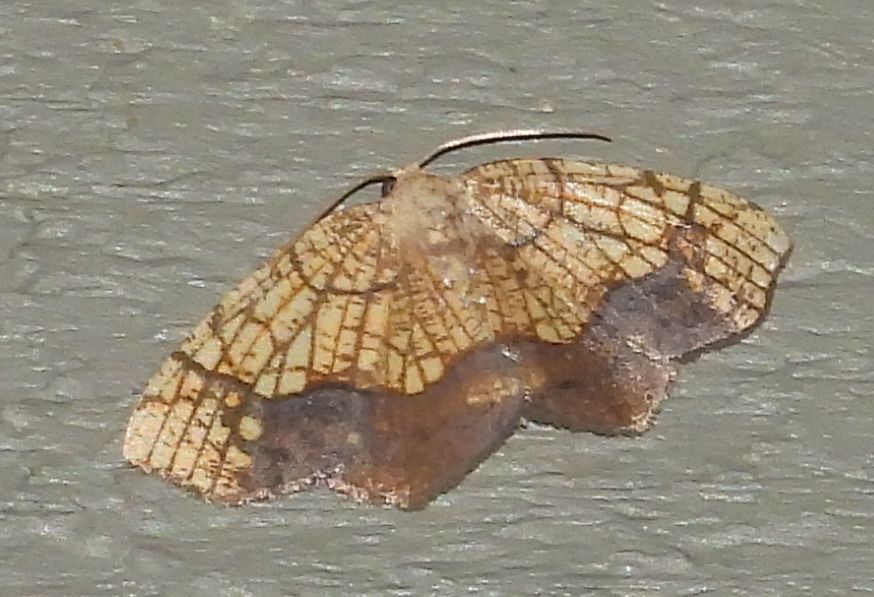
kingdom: Animalia
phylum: Arthropoda
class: Insecta
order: Lepidoptera
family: Geometridae
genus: Nematocampa
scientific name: Nematocampa resistaria
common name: Horned spanworm moth
